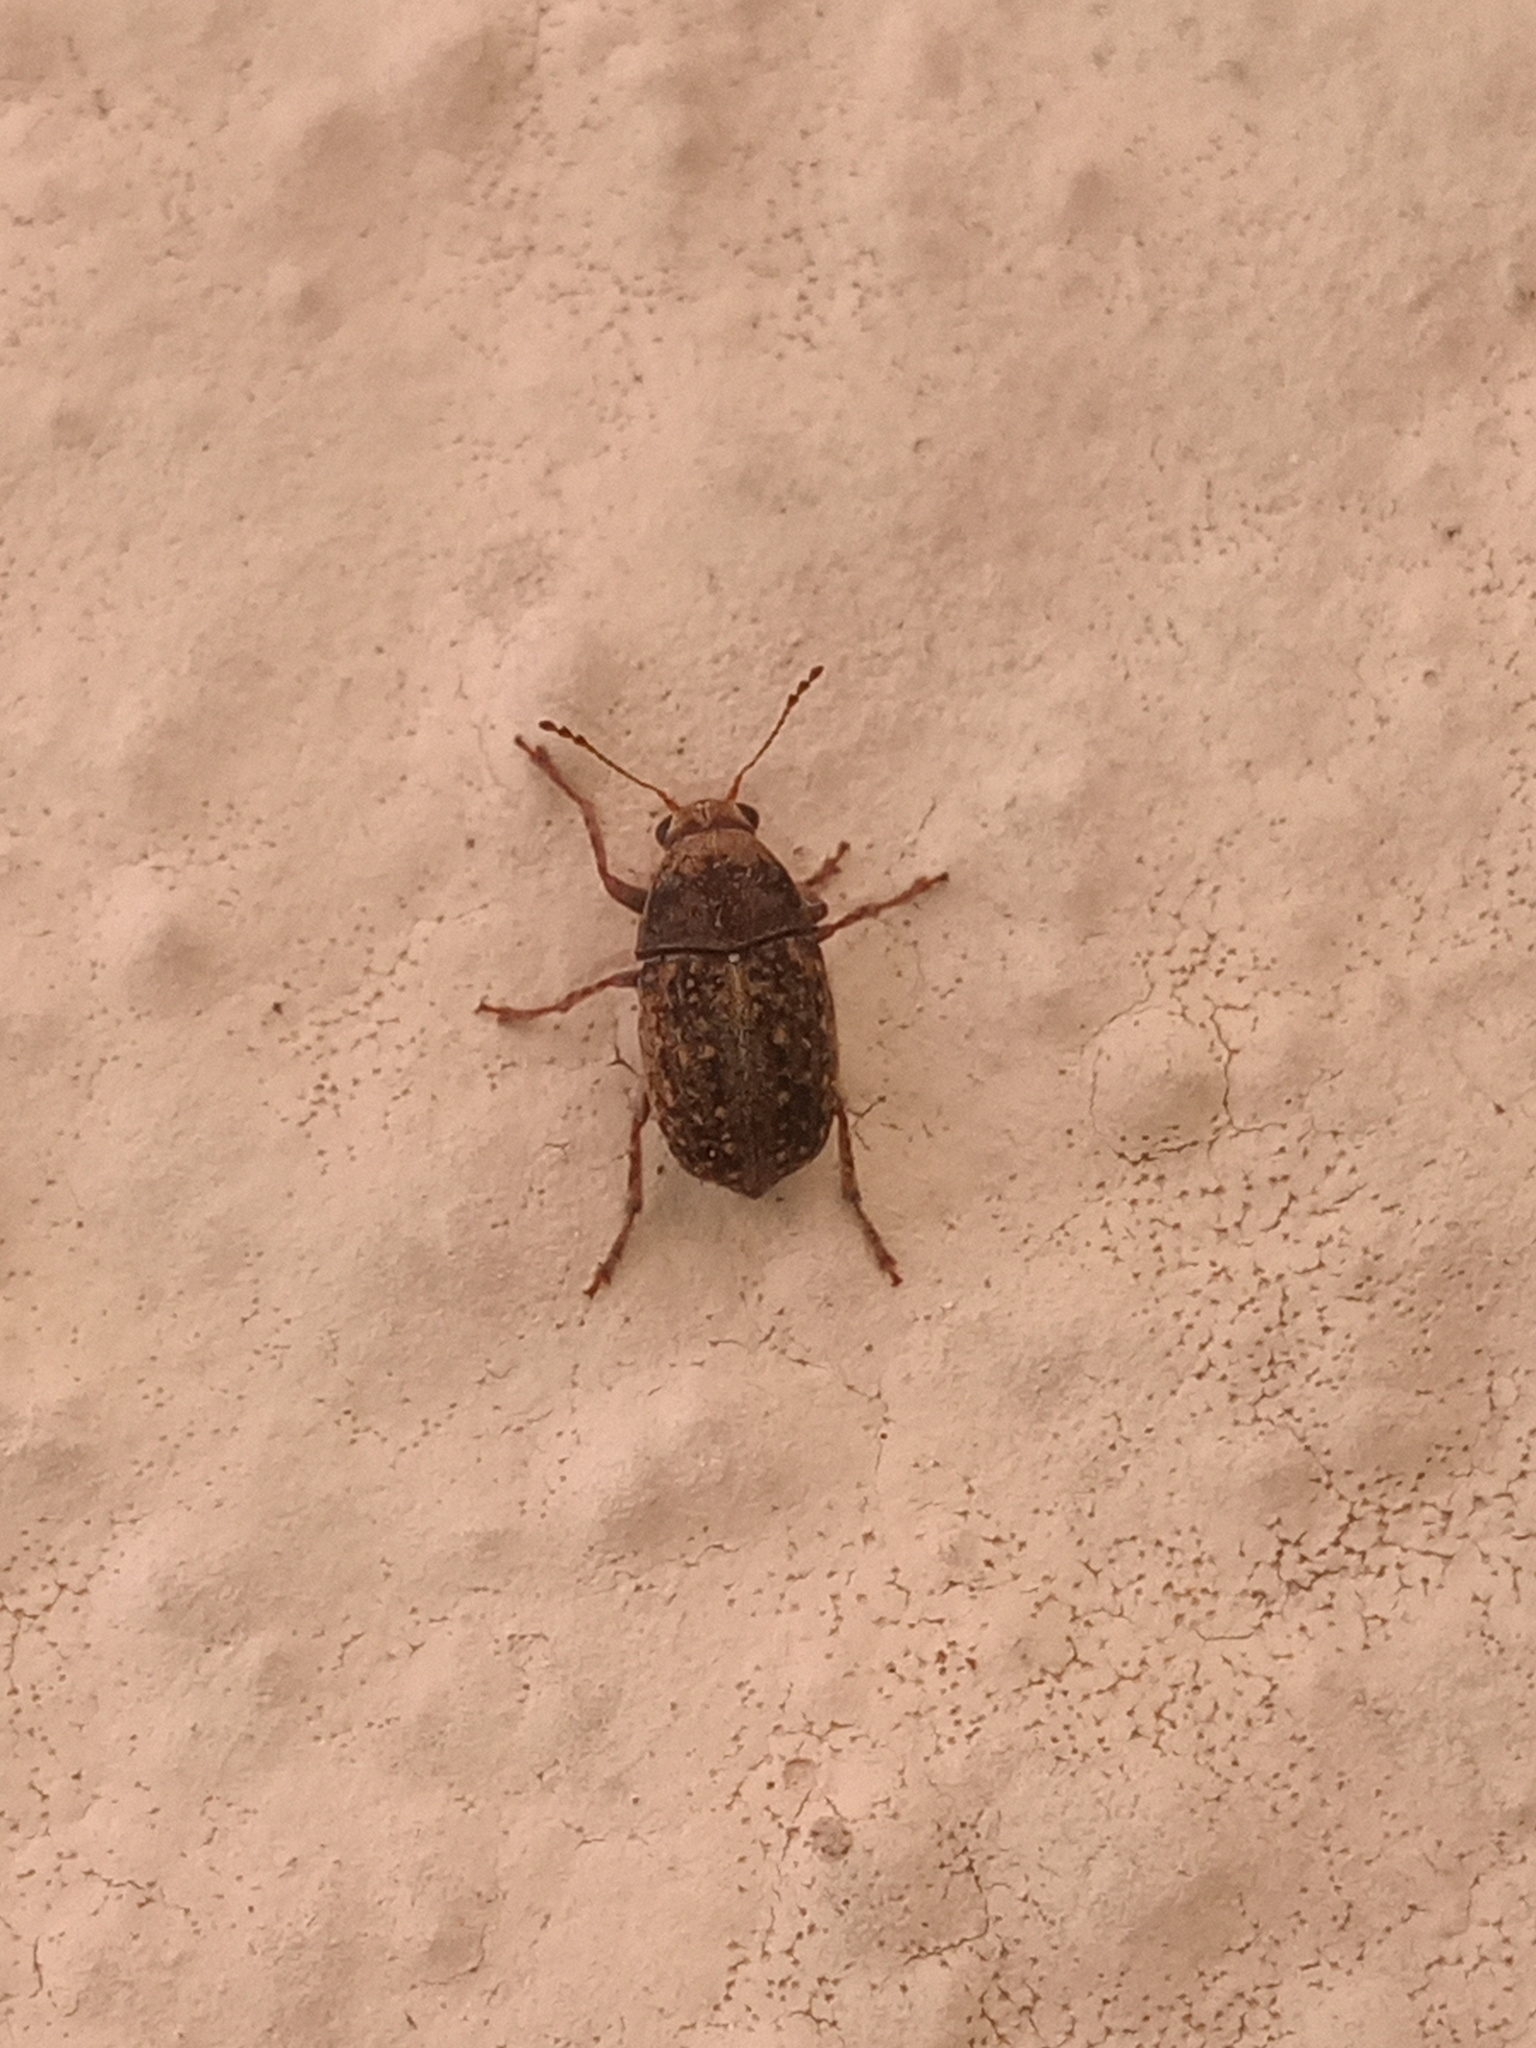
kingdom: Animalia
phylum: Arthropoda
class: Insecta
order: Coleoptera
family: Anthribidae
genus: Araecerus
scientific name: Araecerus fasciculatus
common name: Coffee bean weevil
